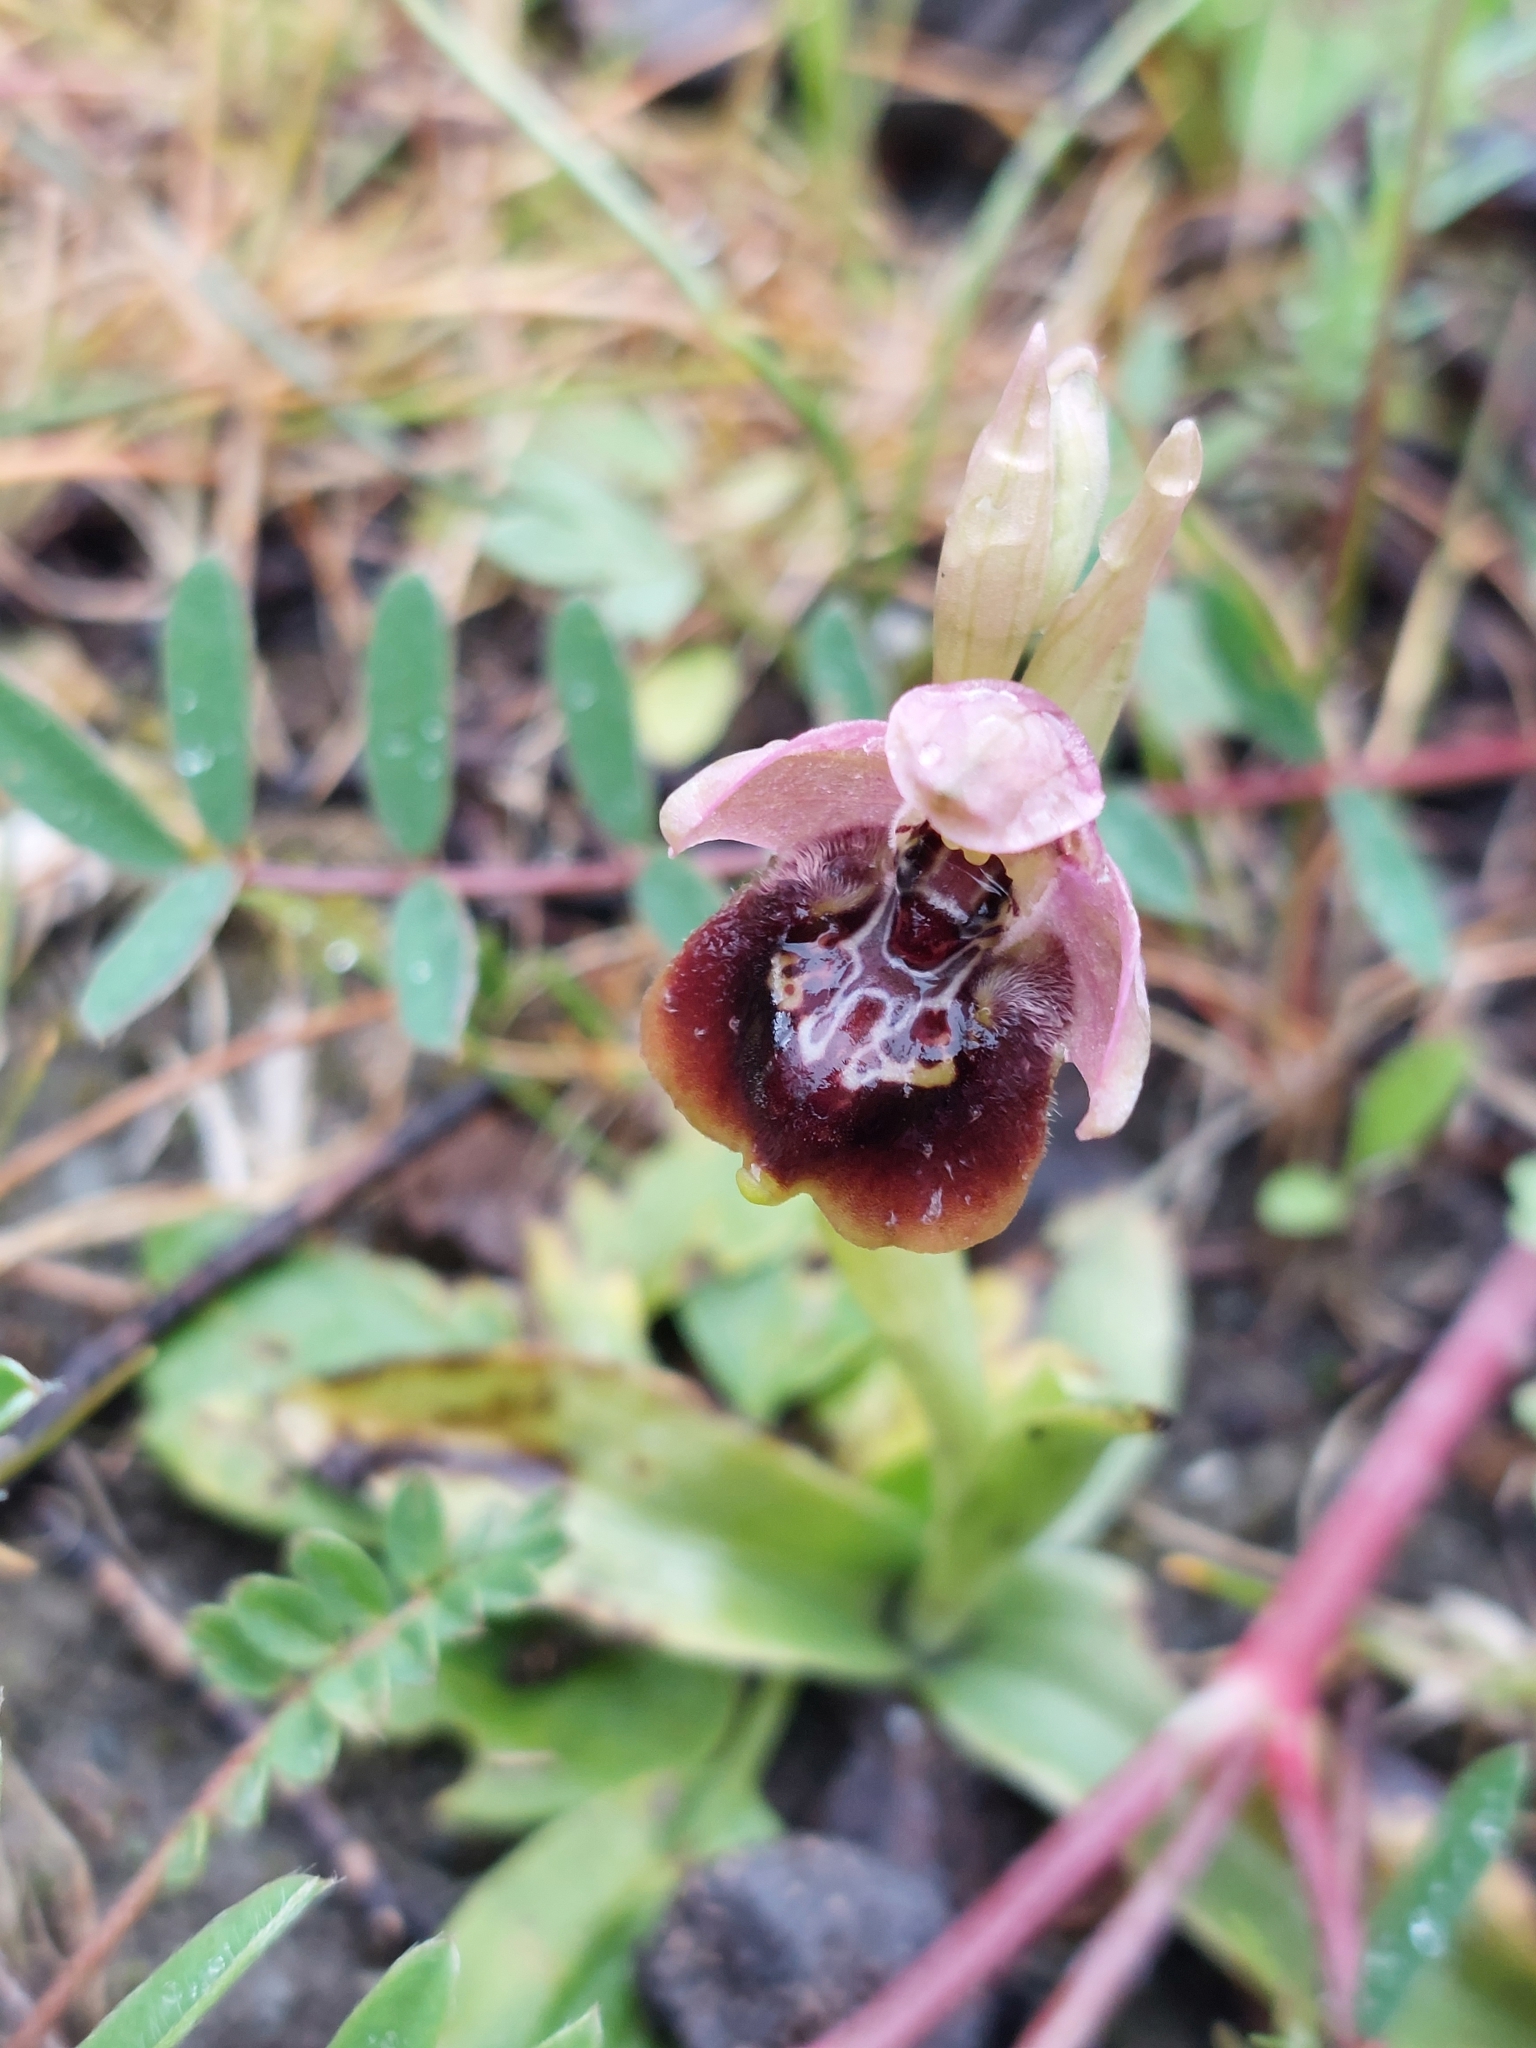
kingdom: Plantae
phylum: Tracheophyta
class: Liliopsida
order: Asparagales
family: Orchidaceae
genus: Ophrys
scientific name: Ophrys holosericea
